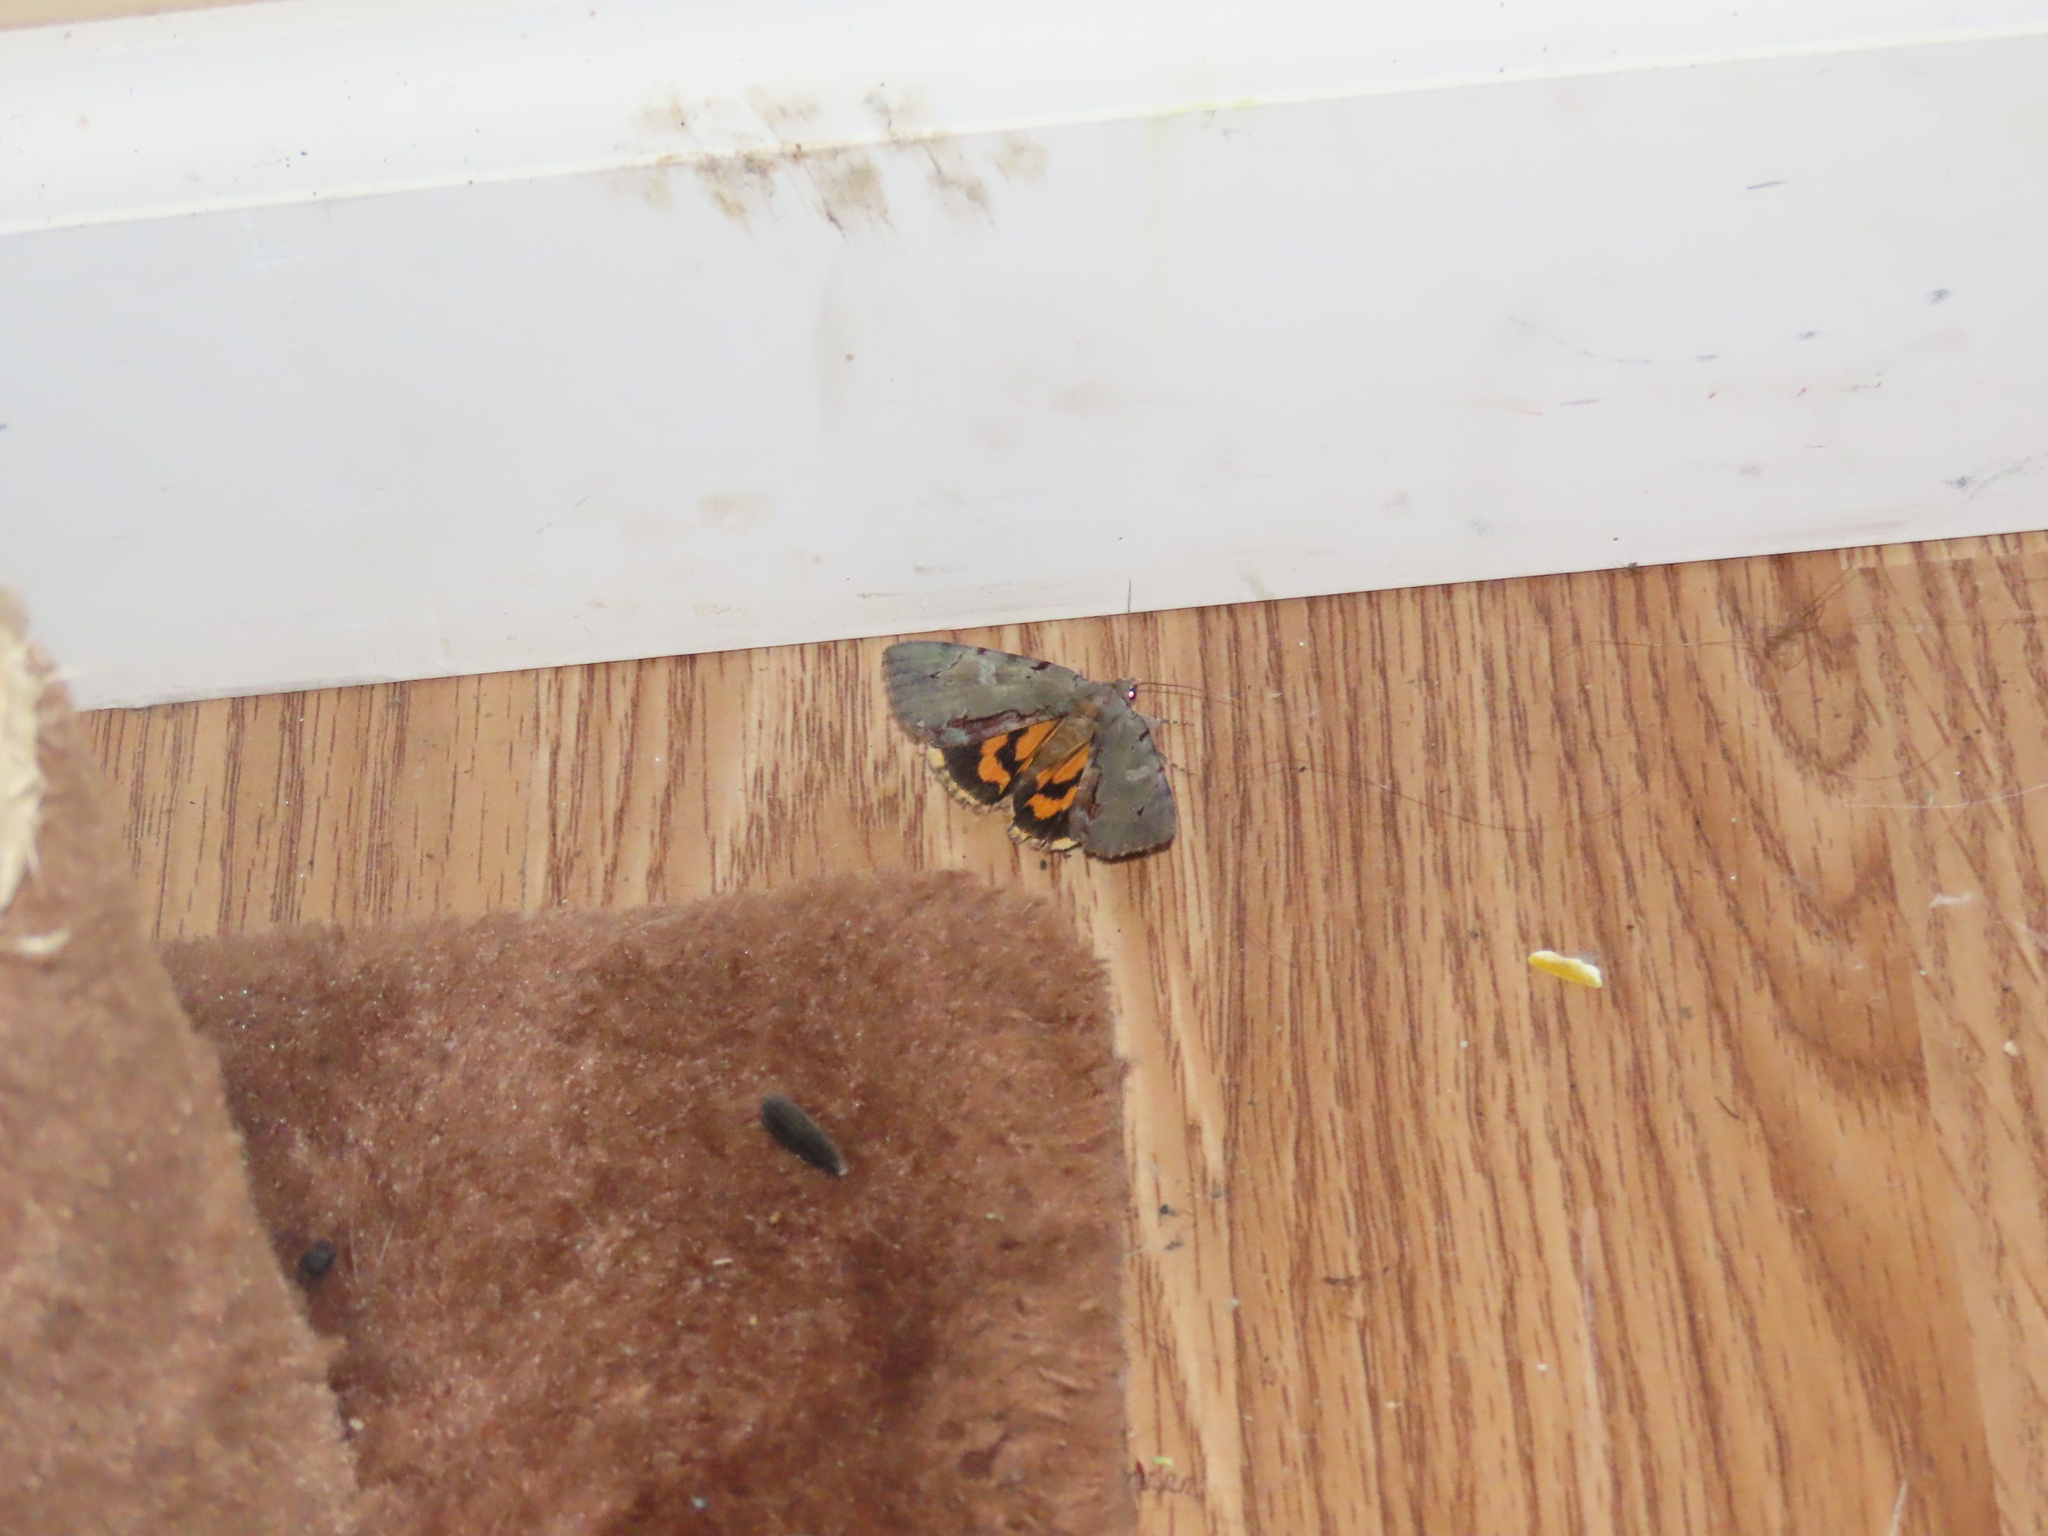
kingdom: Animalia
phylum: Arthropoda
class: Insecta
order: Lepidoptera
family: Erebidae
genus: Catocala
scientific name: Catocala grynea
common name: Woody underwing
